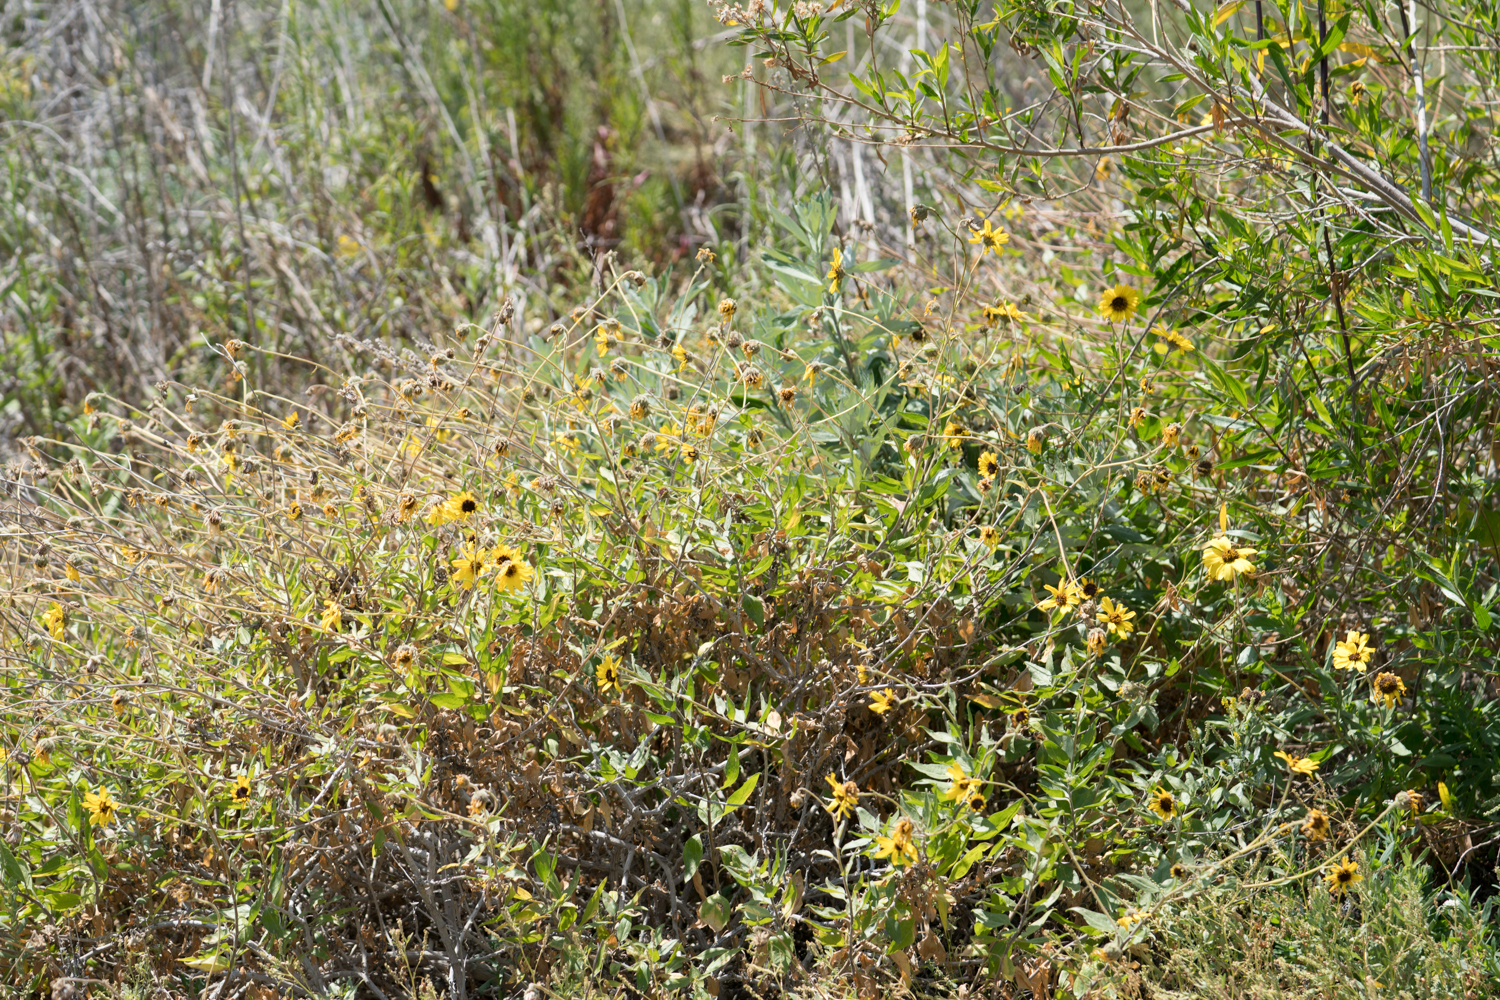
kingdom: Plantae
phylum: Tracheophyta
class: Magnoliopsida
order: Asterales
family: Asteraceae
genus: Encelia
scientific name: Encelia californica
